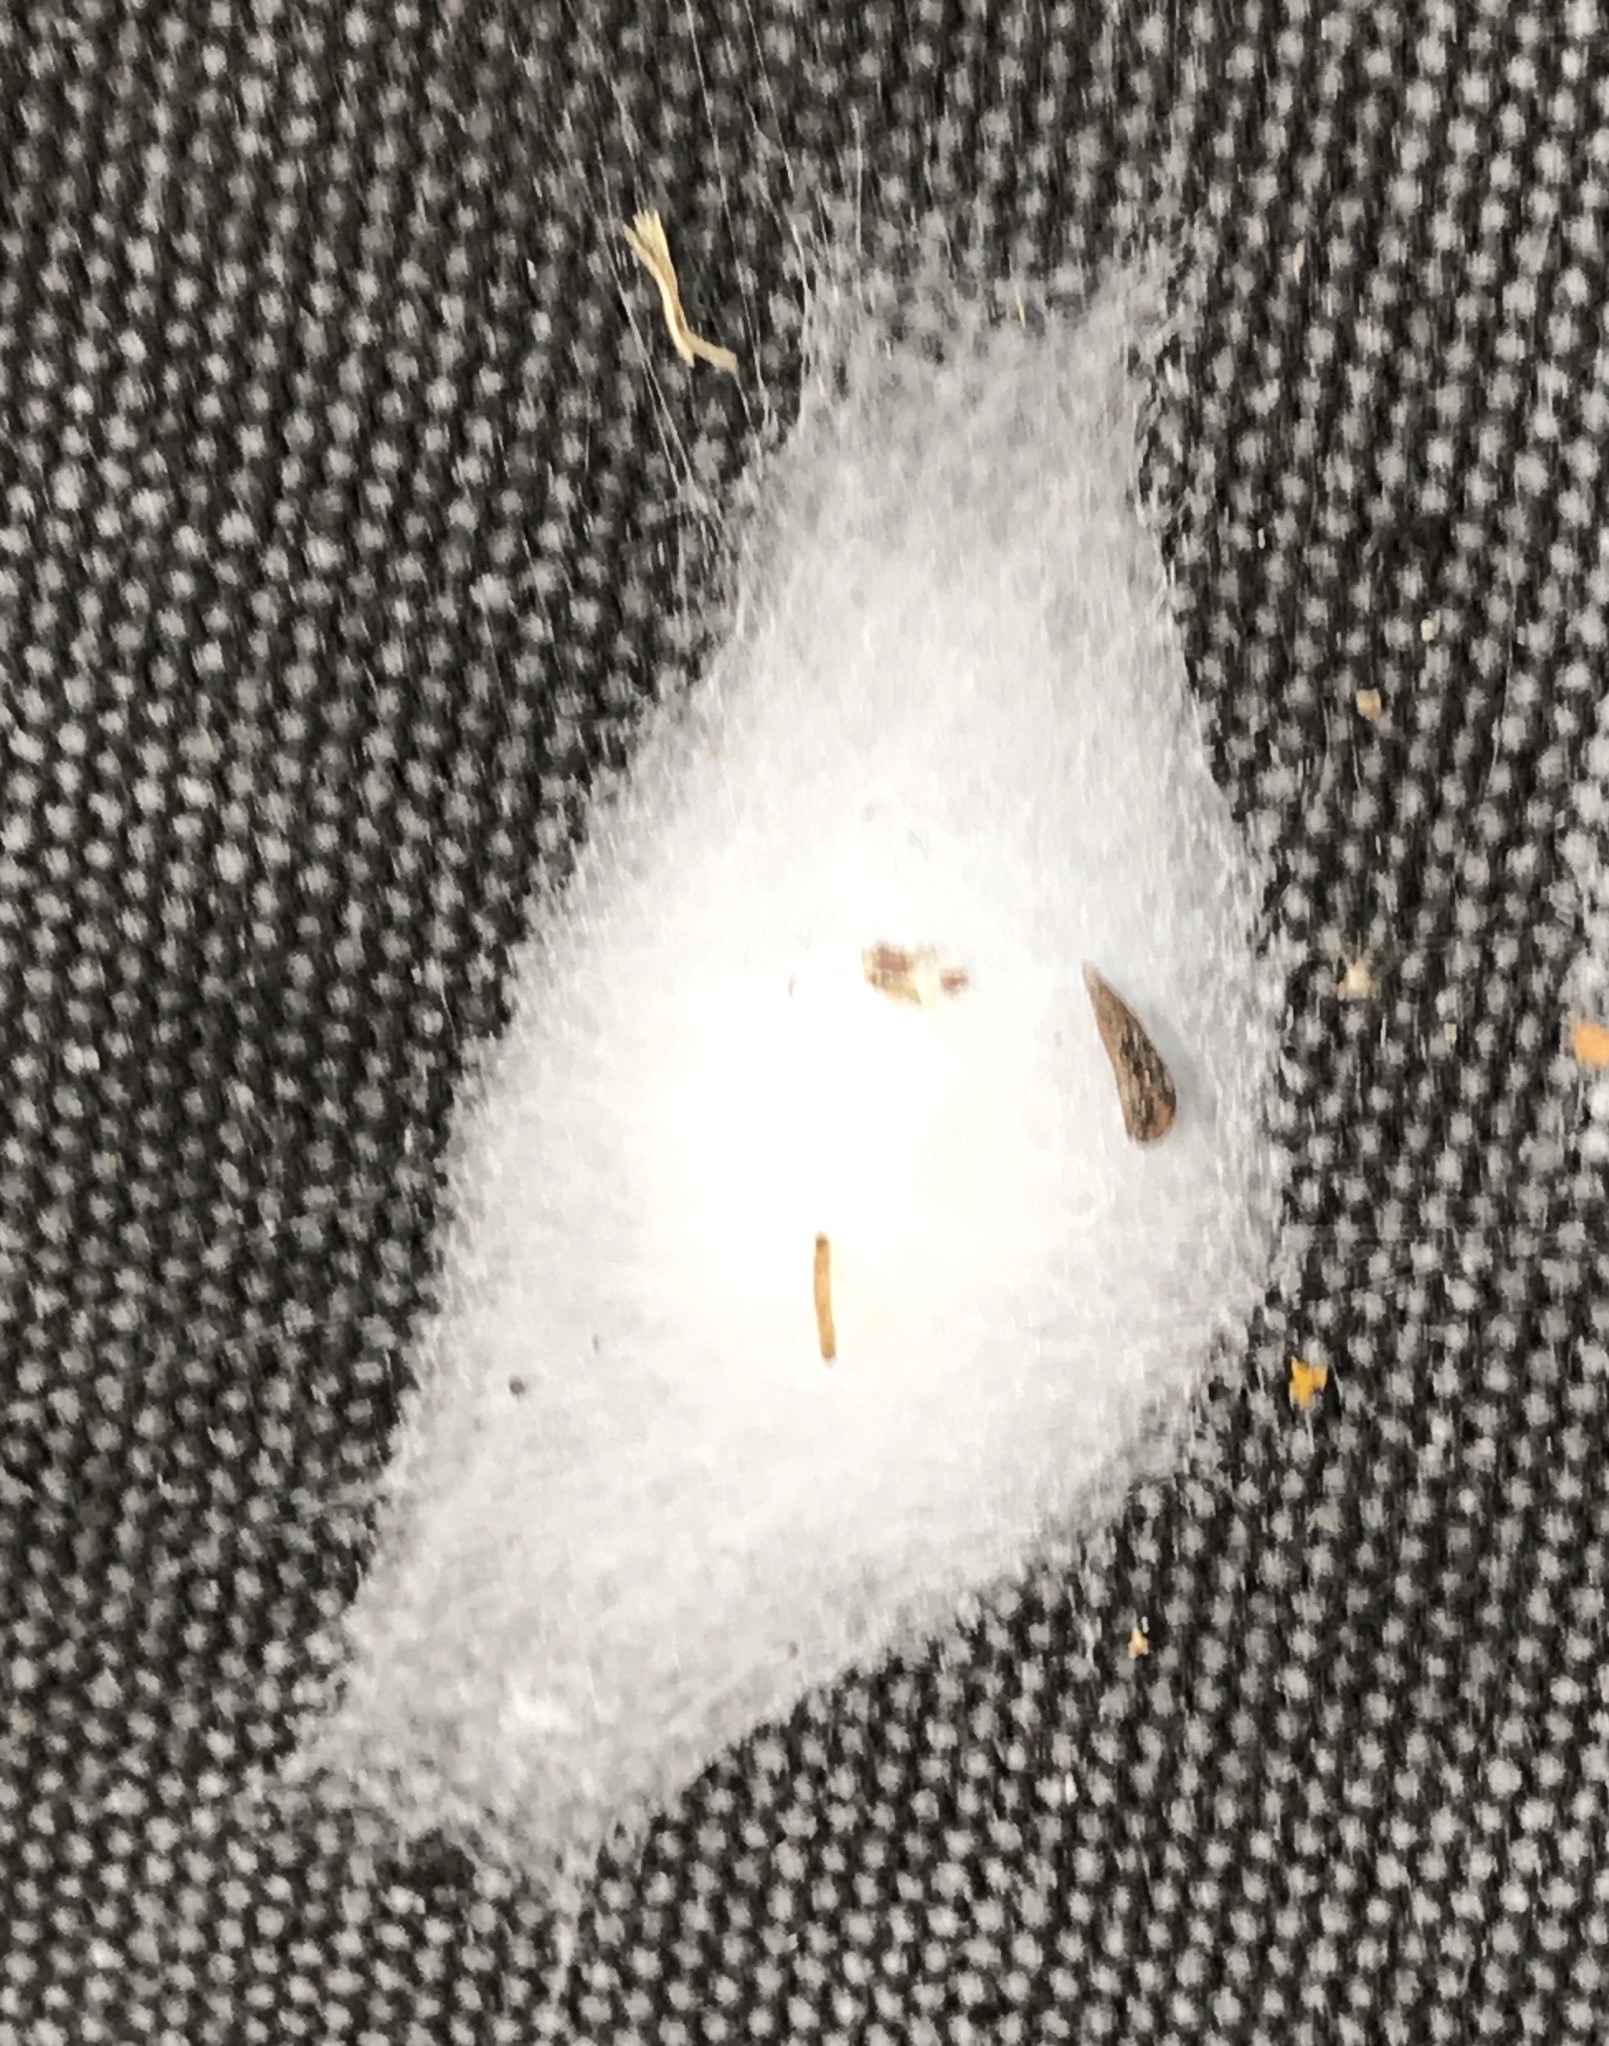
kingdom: Animalia
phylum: Arthropoda
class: Arachnida
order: Araneae
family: Salticidae
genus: Platycryptus
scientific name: Platycryptus undatus
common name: Tan jumping spider
